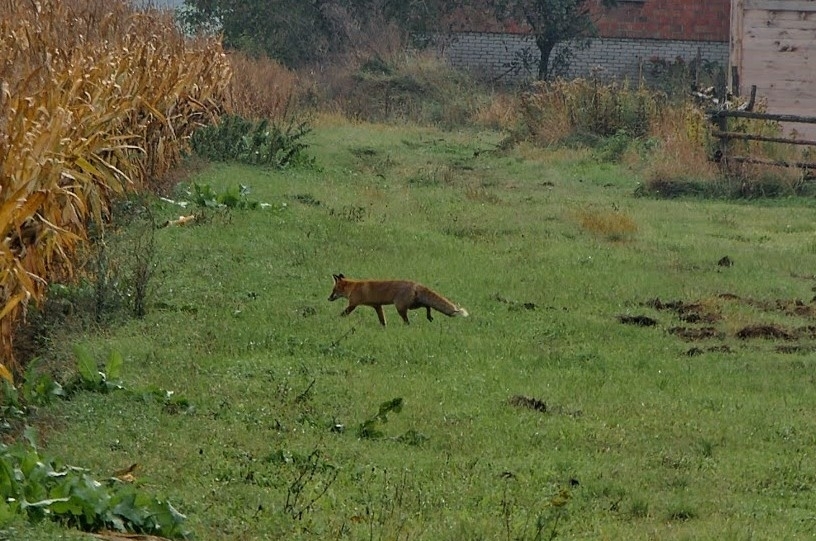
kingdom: Animalia
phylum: Chordata
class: Mammalia
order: Carnivora
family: Canidae
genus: Vulpes
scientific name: Vulpes vulpes
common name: Red fox
